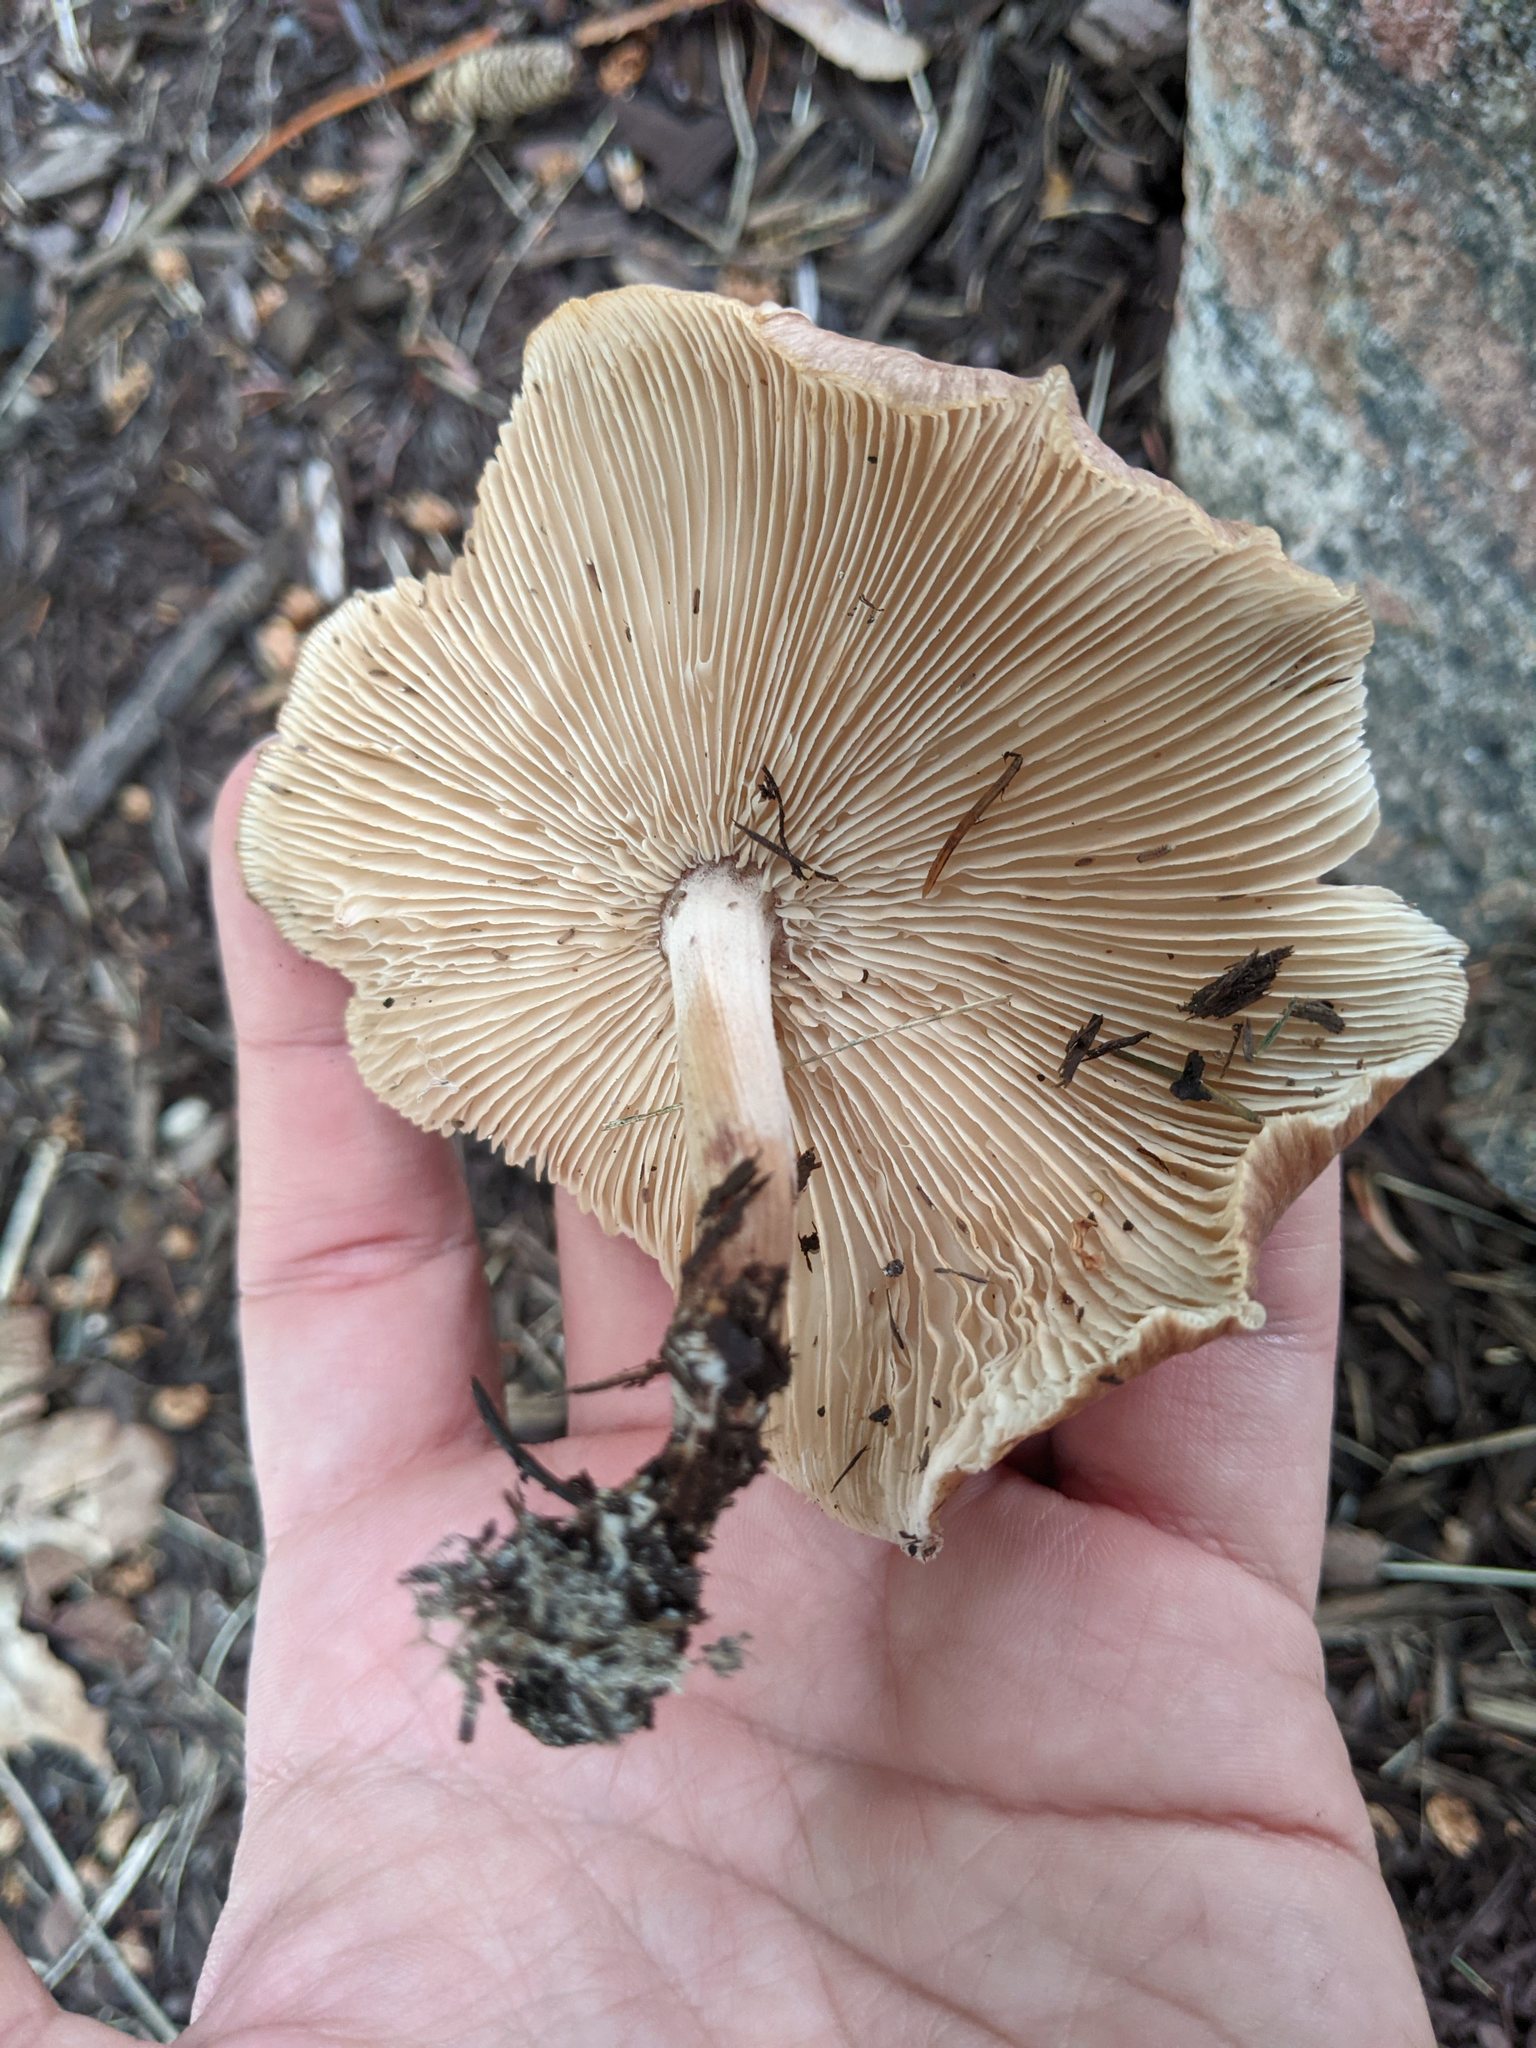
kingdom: Fungi
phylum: Basidiomycota
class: Agaricomycetes
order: Agaricales
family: Omphalotaceae
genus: Collybiopsis
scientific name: Collybiopsis luxurians
